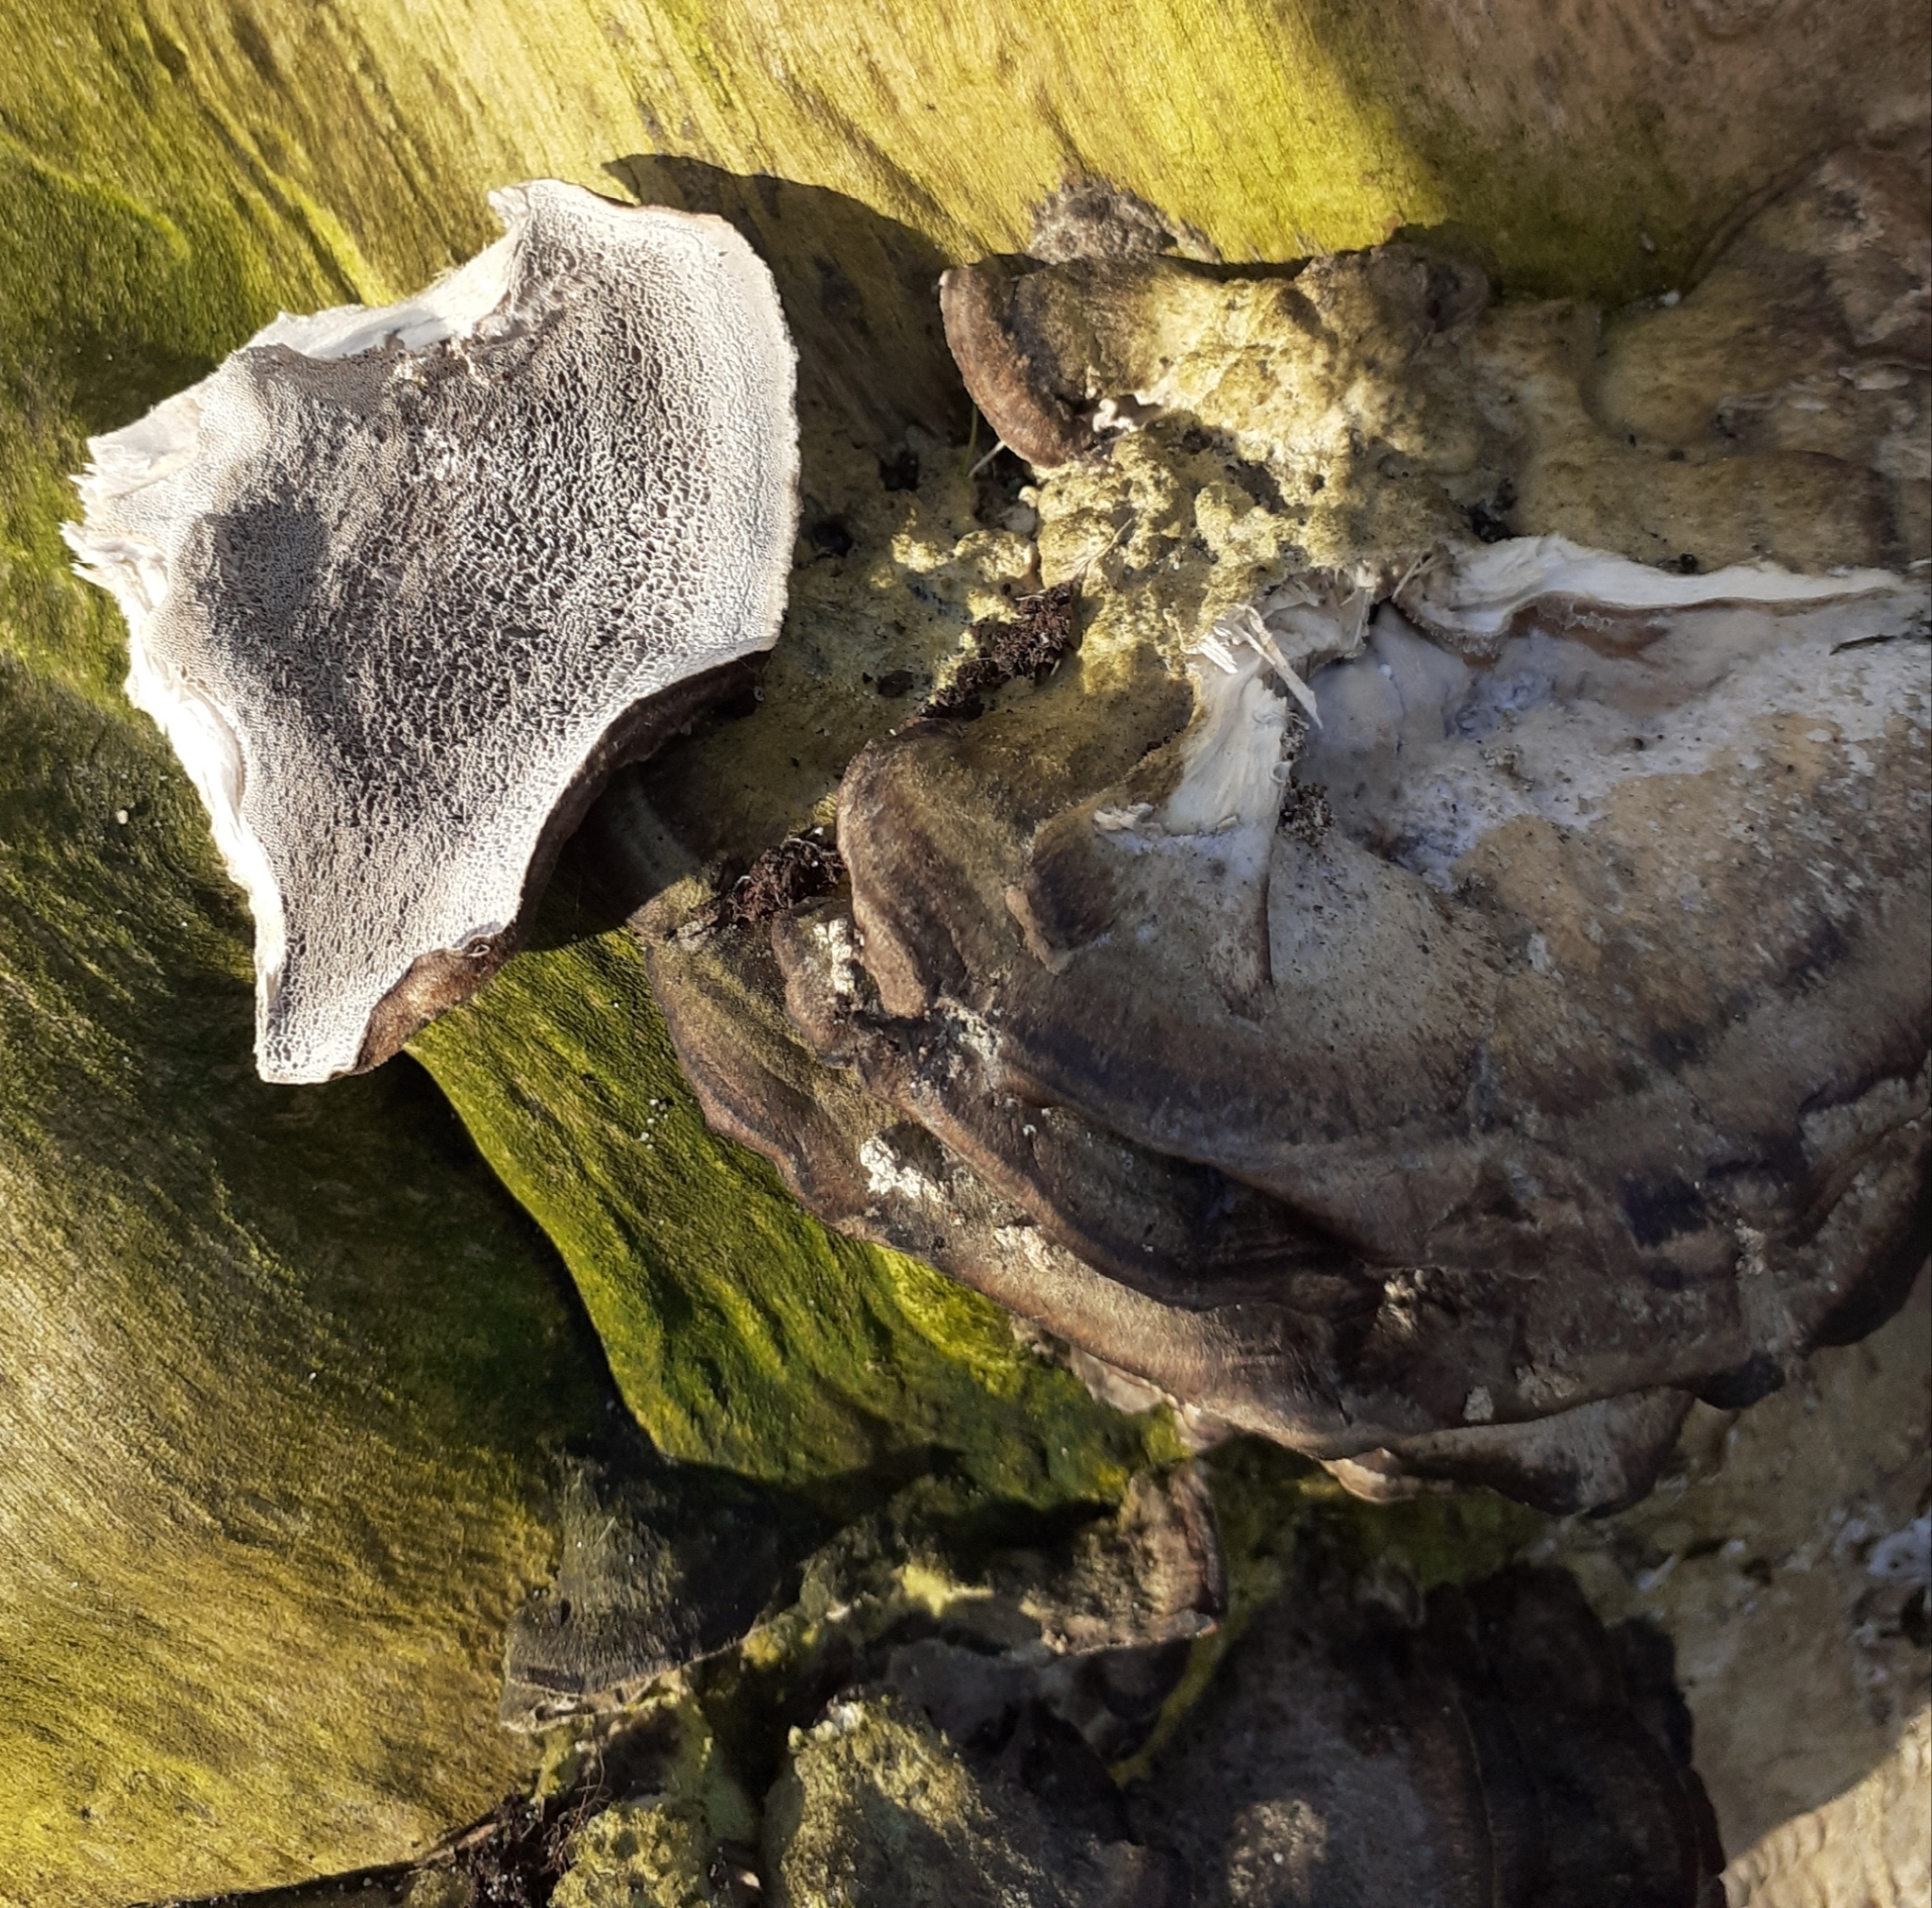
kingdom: Fungi
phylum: Basidiomycota
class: Agaricomycetes
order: Polyporales
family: Phanerochaetaceae
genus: Bjerkandera
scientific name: Bjerkandera adusta
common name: Smoky bracket
